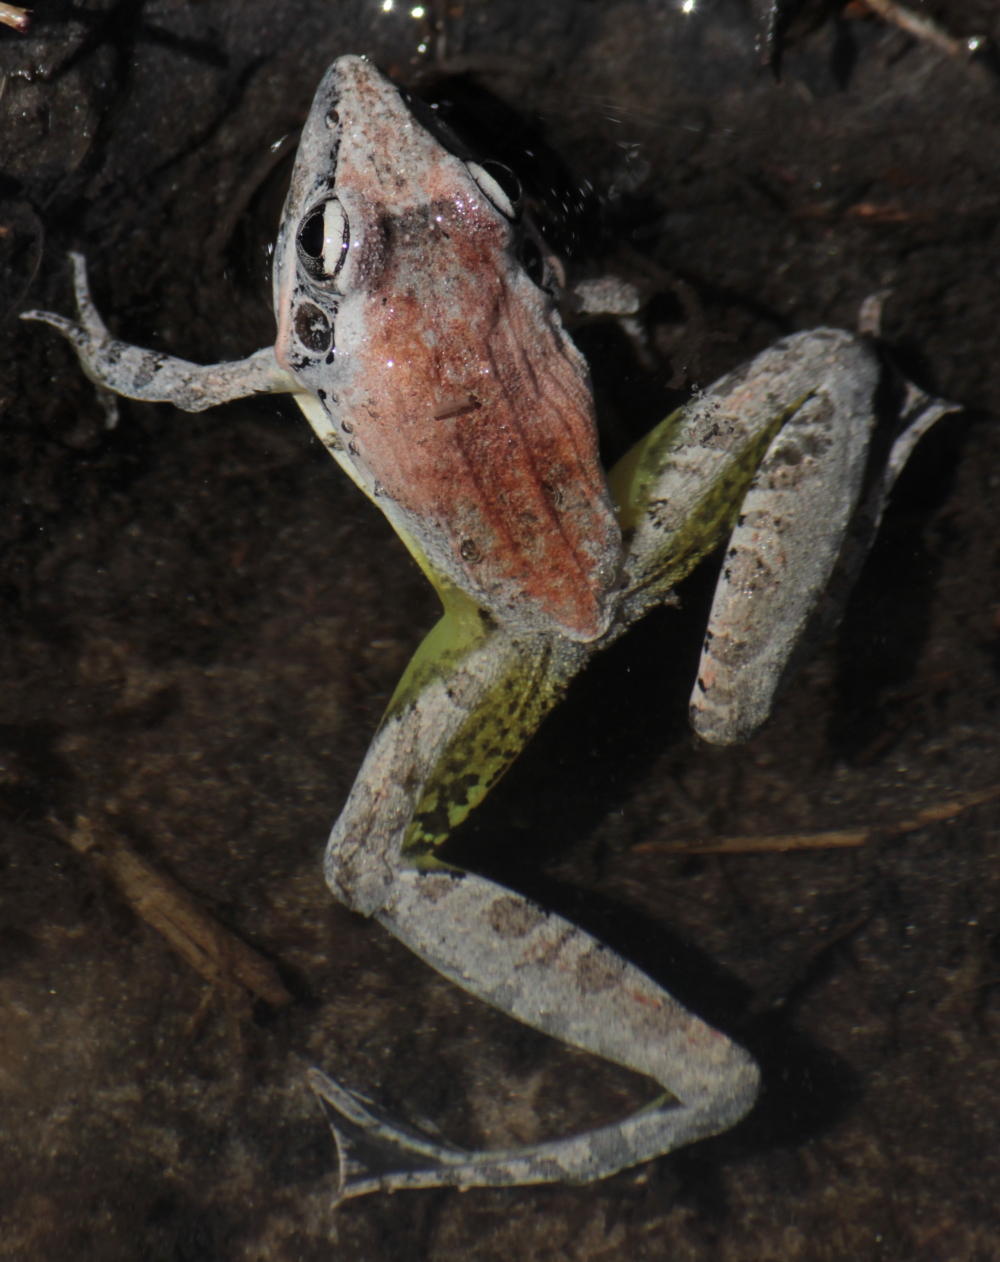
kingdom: Animalia
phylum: Chordata
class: Amphibia
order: Anura
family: Ptychadenidae
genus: Ptychadena
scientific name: Ptychadena anchietae
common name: Anchieta's ridged frog
